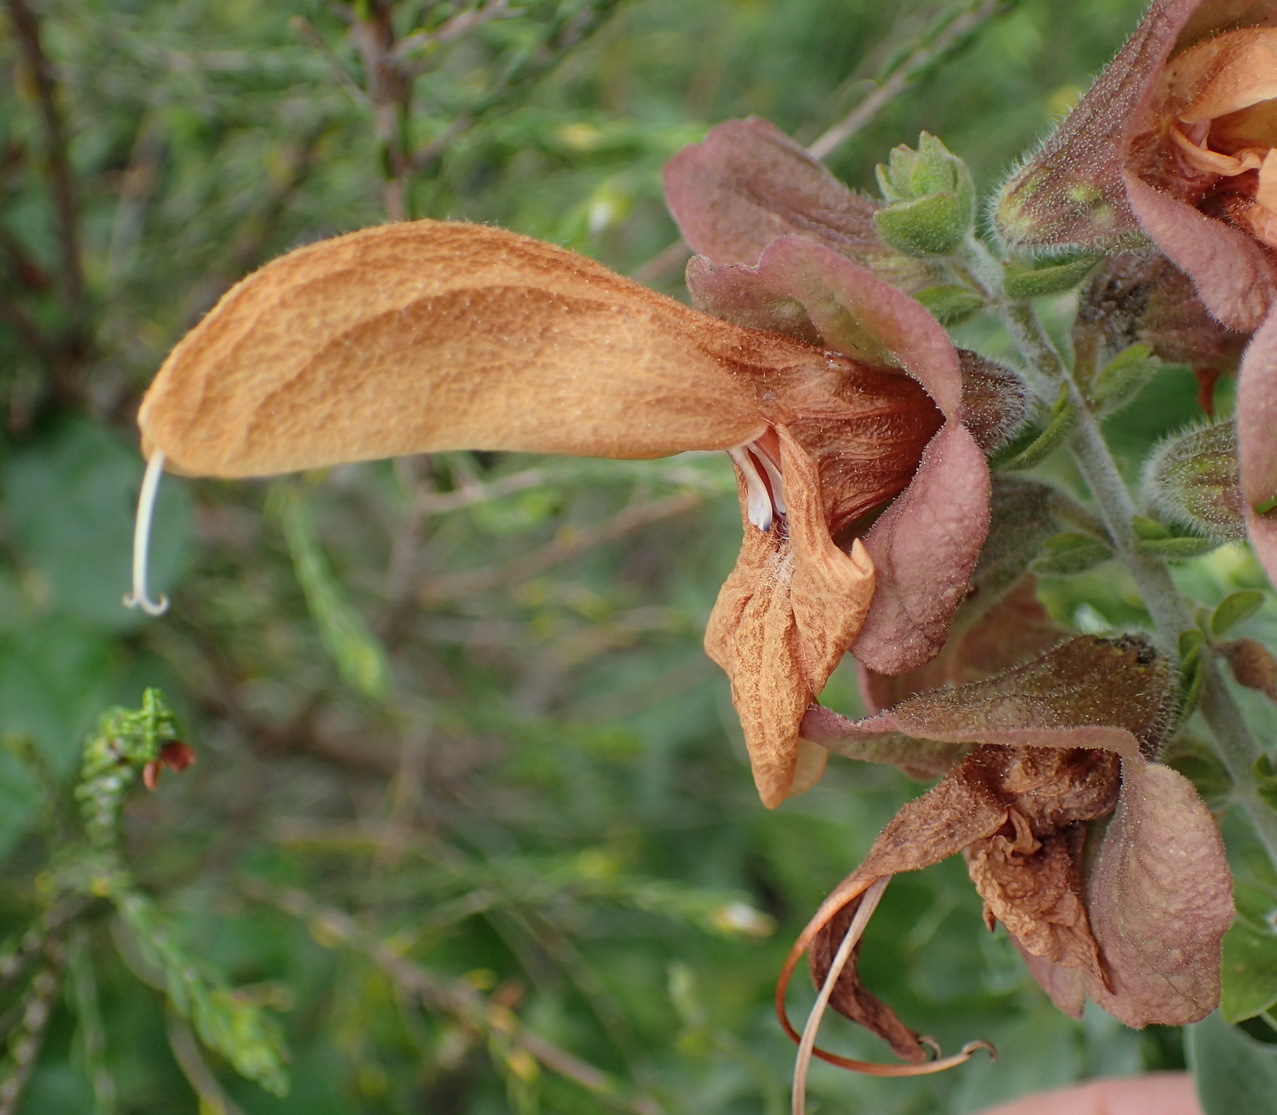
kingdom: Plantae
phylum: Tracheophyta
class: Magnoliopsida
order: Lamiales
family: Lamiaceae
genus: Salvia
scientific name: Salvia aurea
